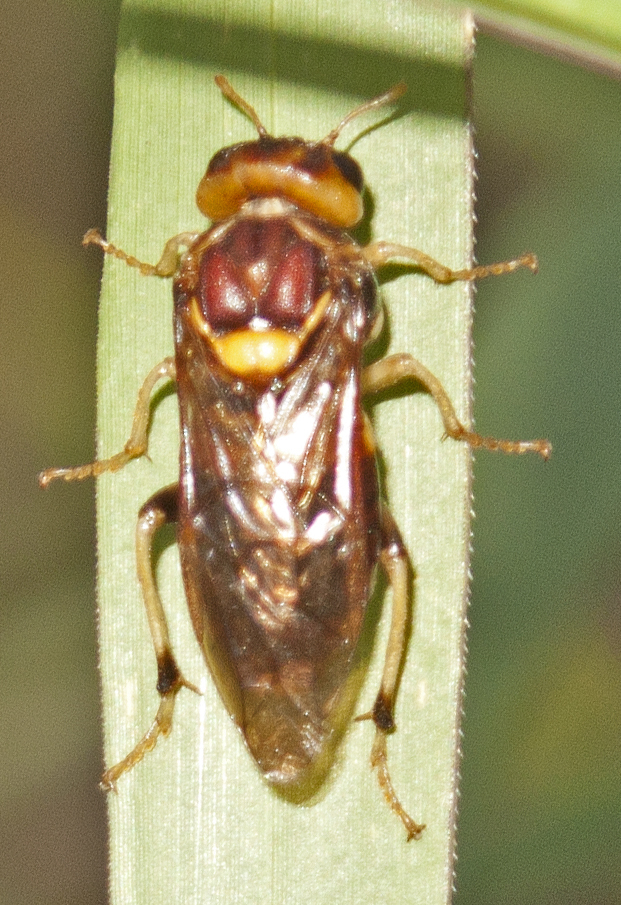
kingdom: Animalia
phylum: Arthropoda
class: Insecta
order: Hymenoptera
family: Pergidae
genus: Pergagrapta
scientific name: Pergagrapta latreillii
